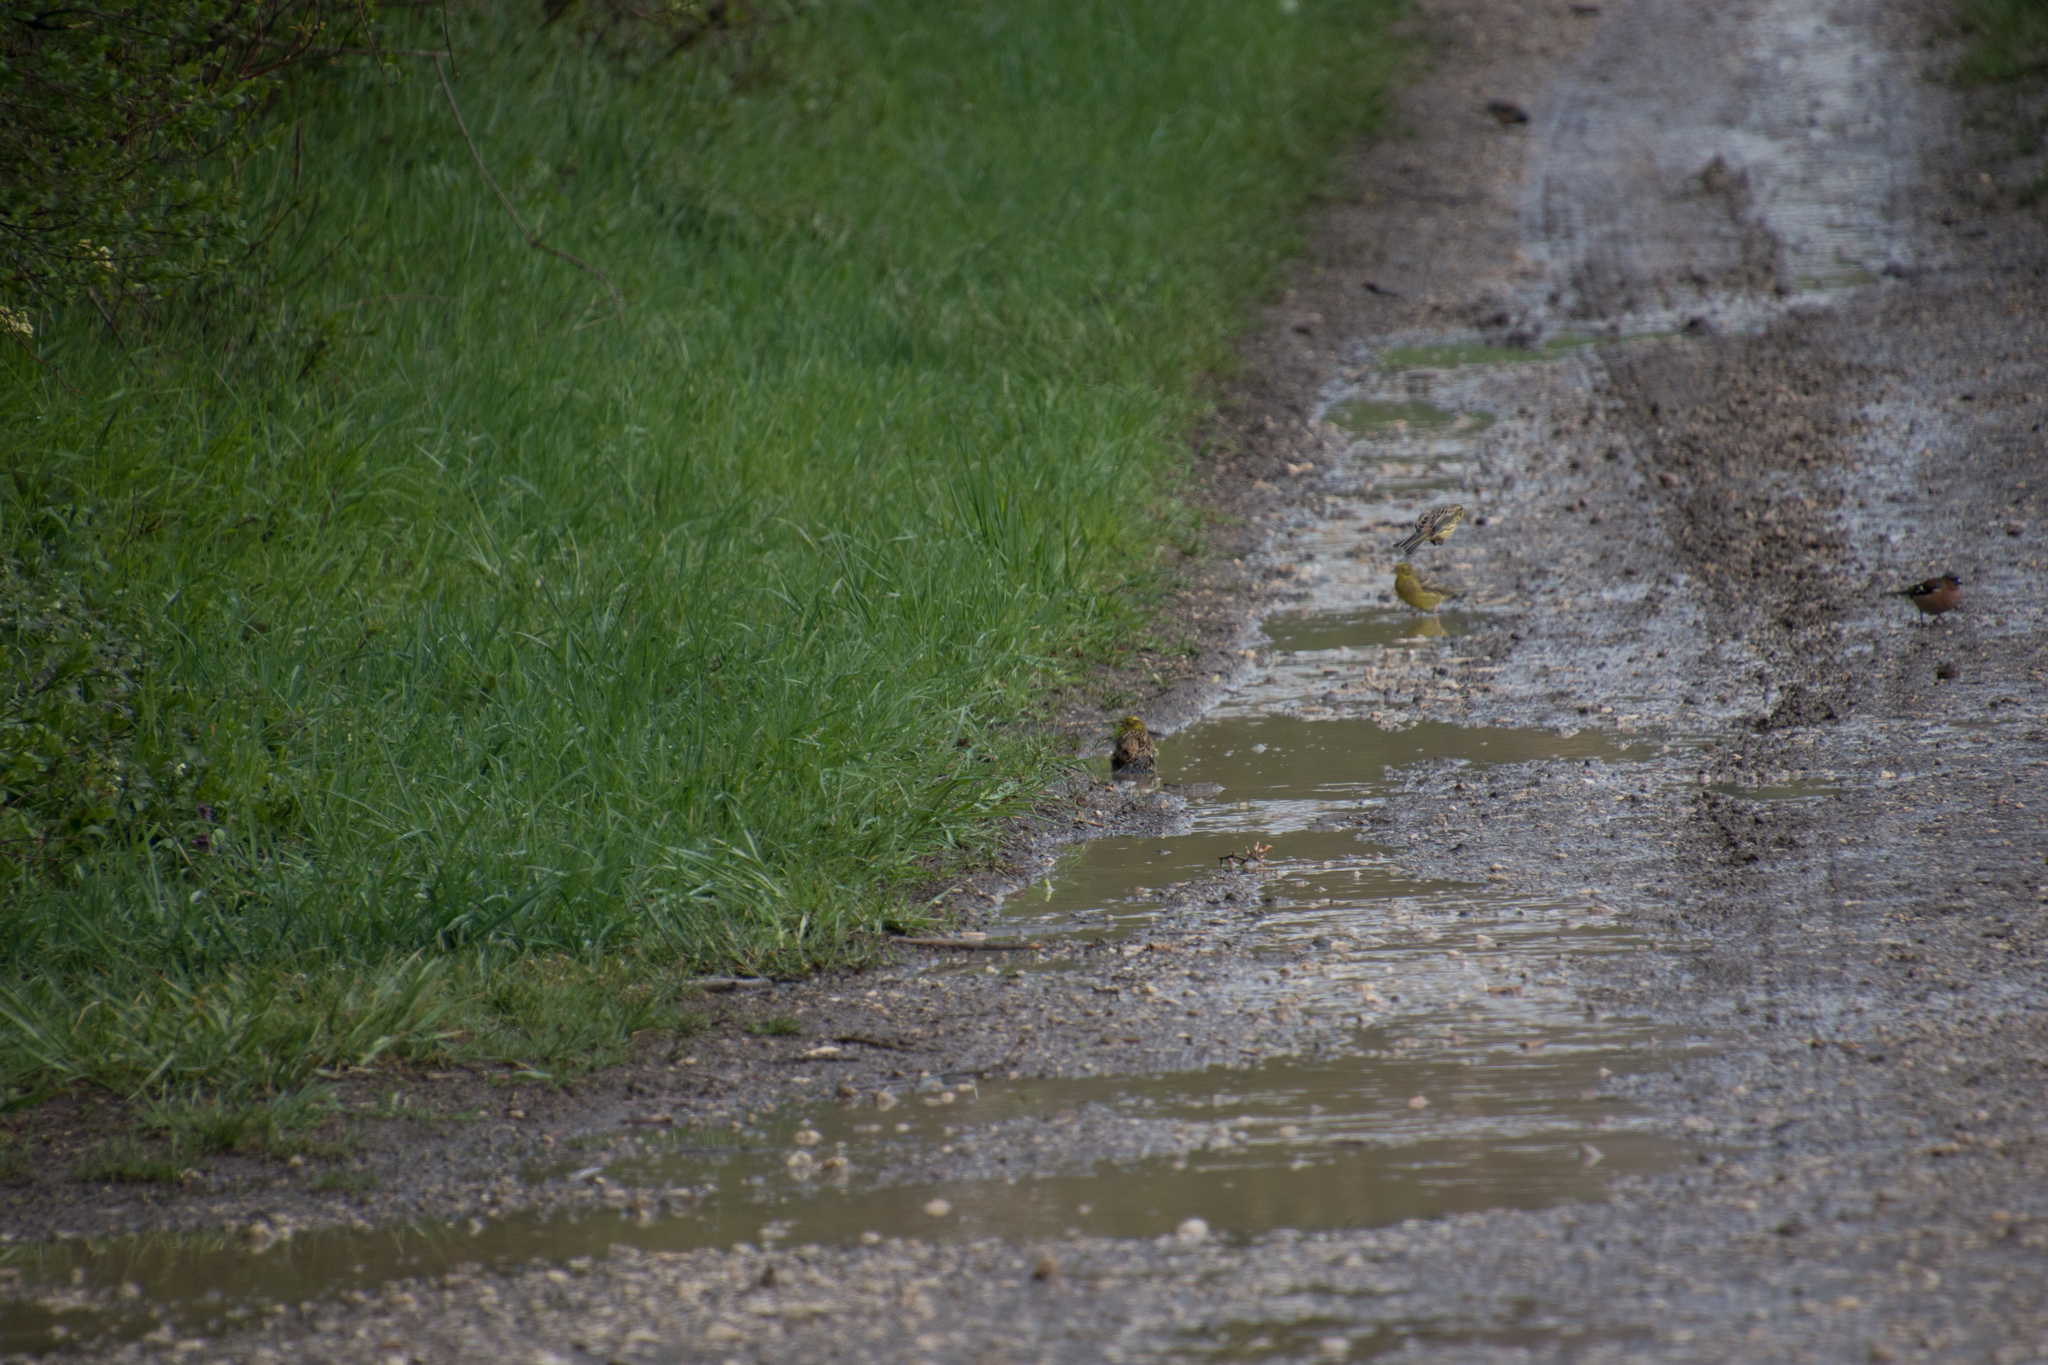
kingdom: Animalia
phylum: Chordata
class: Aves
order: Passeriformes
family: Emberizidae
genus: Emberiza
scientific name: Emberiza citrinella
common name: Yellowhammer
